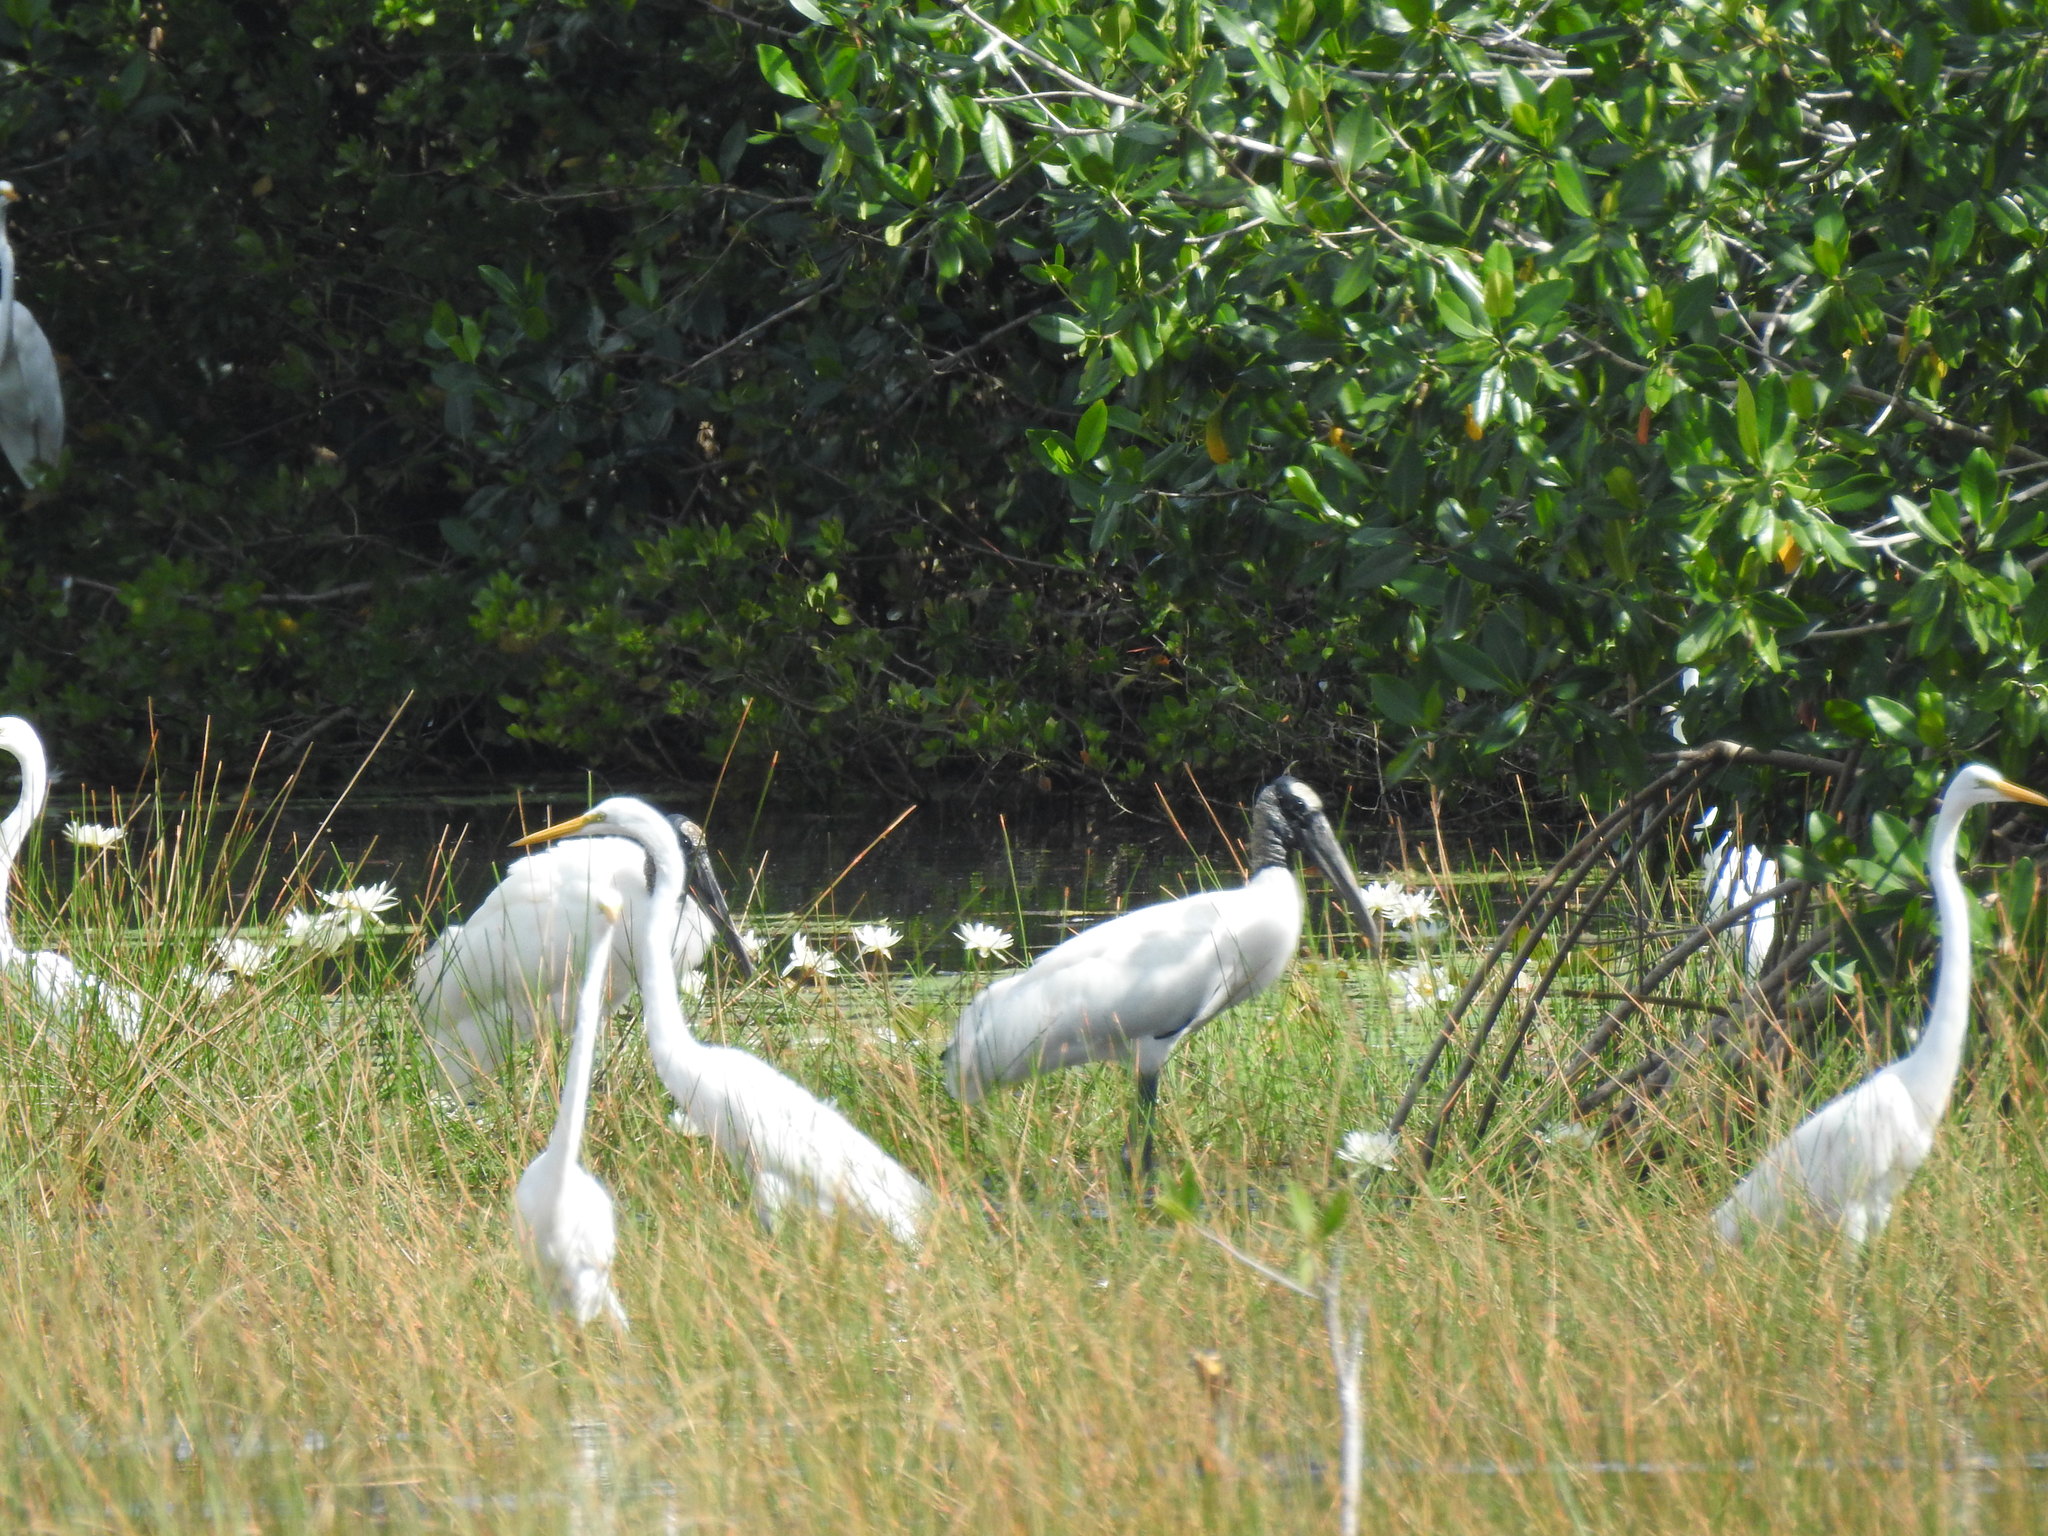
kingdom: Animalia
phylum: Chordata
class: Aves
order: Ciconiiformes
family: Ciconiidae
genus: Mycteria
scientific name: Mycteria americana
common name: Wood stork
